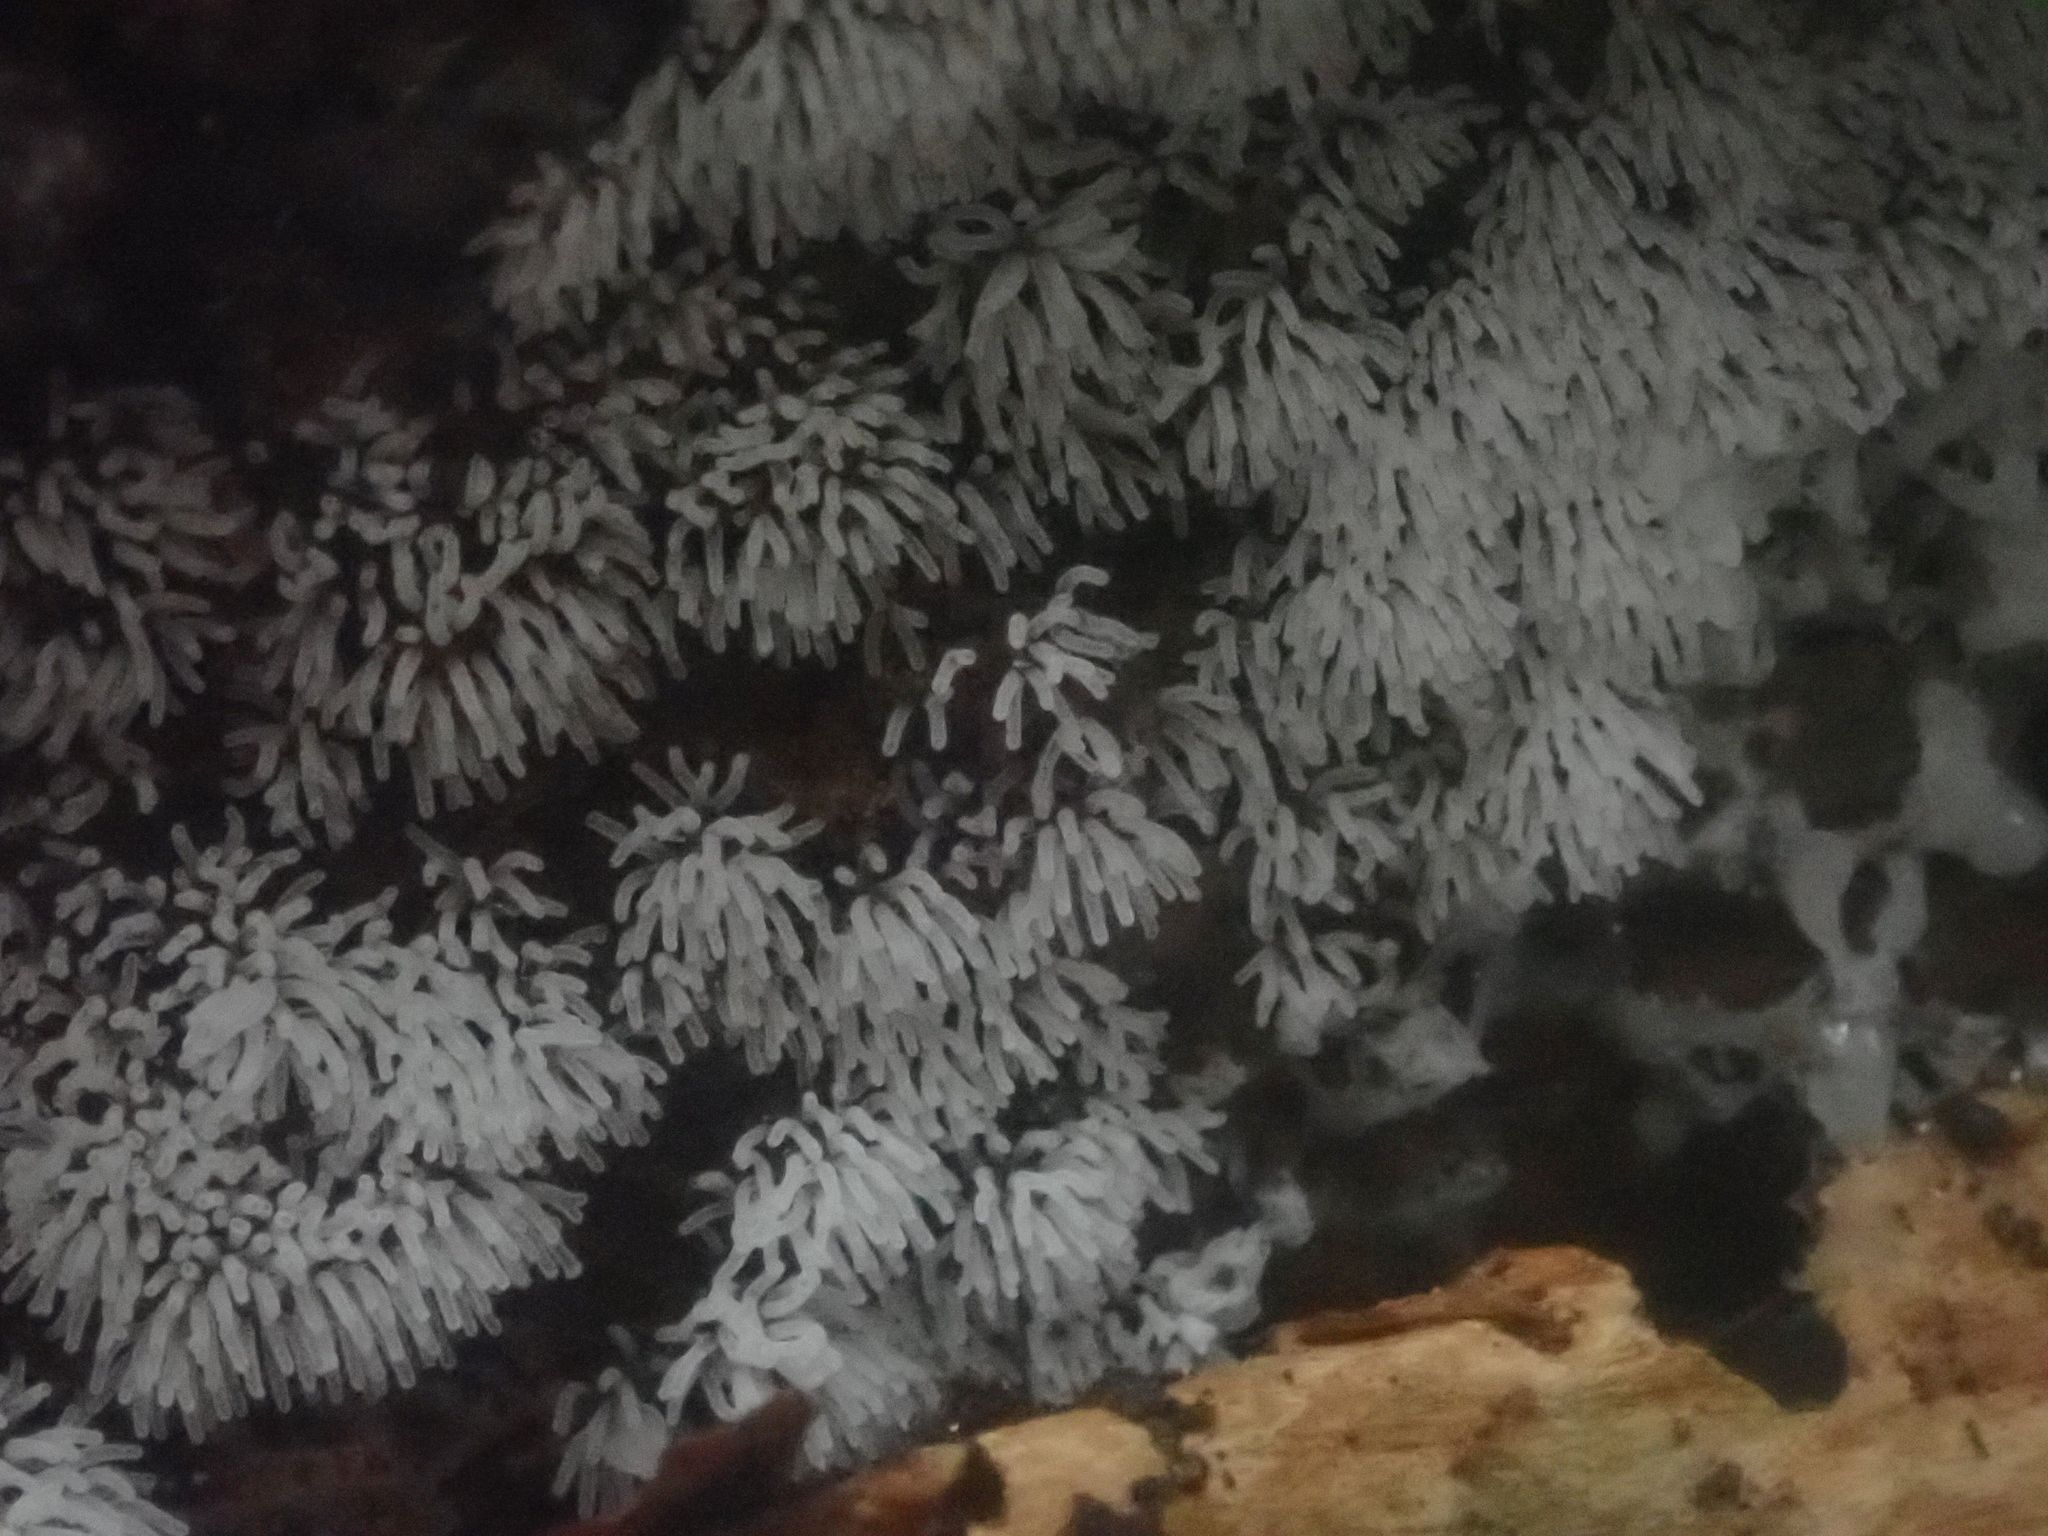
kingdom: Protozoa
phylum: Mycetozoa
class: Protosteliomycetes
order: Ceratiomyxales
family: Ceratiomyxaceae
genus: Ceratiomyxa
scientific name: Ceratiomyxa fruticulosa
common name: Honeycomb coral slime mold
